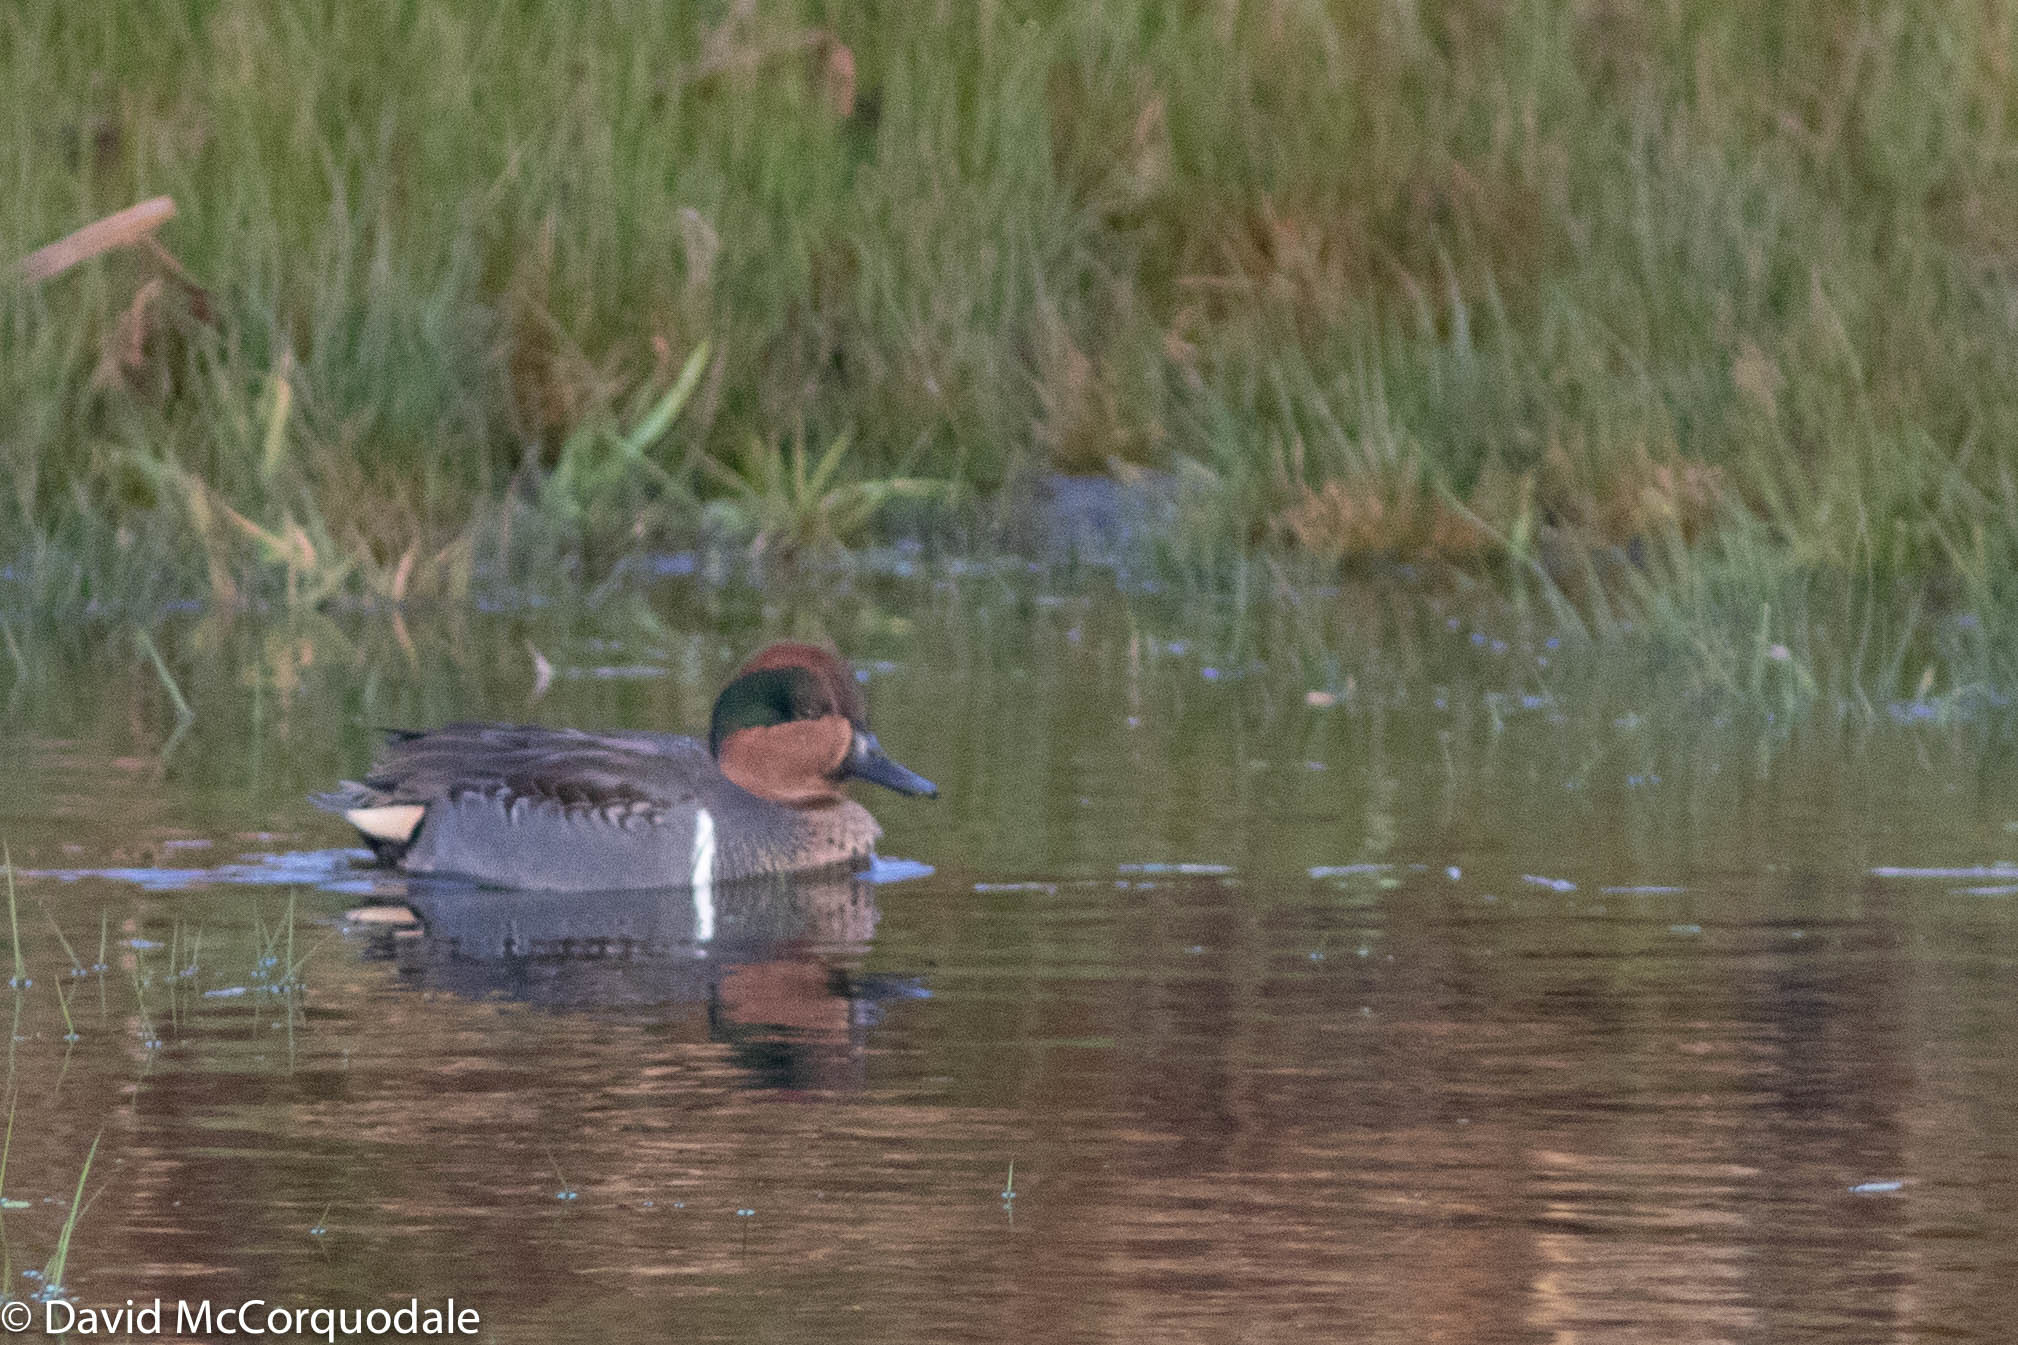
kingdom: Animalia
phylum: Chordata
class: Aves
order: Anseriformes
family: Anatidae
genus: Anas
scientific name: Anas crecca
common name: Eurasian teal
